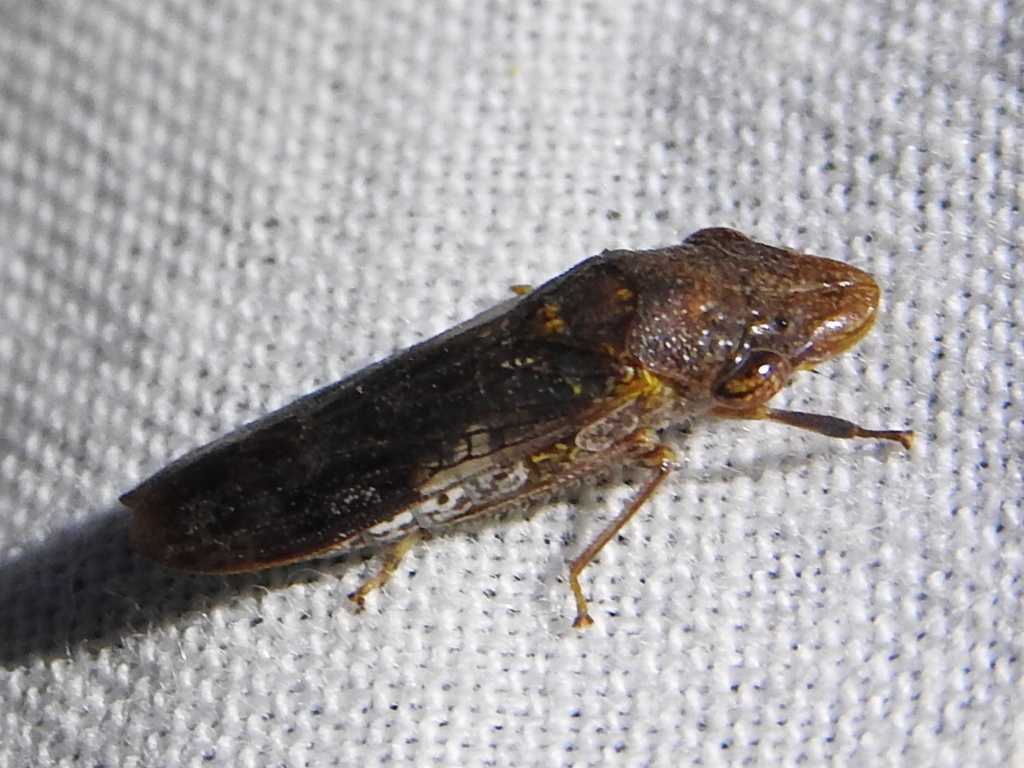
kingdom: Animalia
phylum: Arthropoda
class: Insecta
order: Hemiptera
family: Cicadellidae
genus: Homalodisca
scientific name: Homalodisca vitripennis
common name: Glassy-winged sharpshooter
